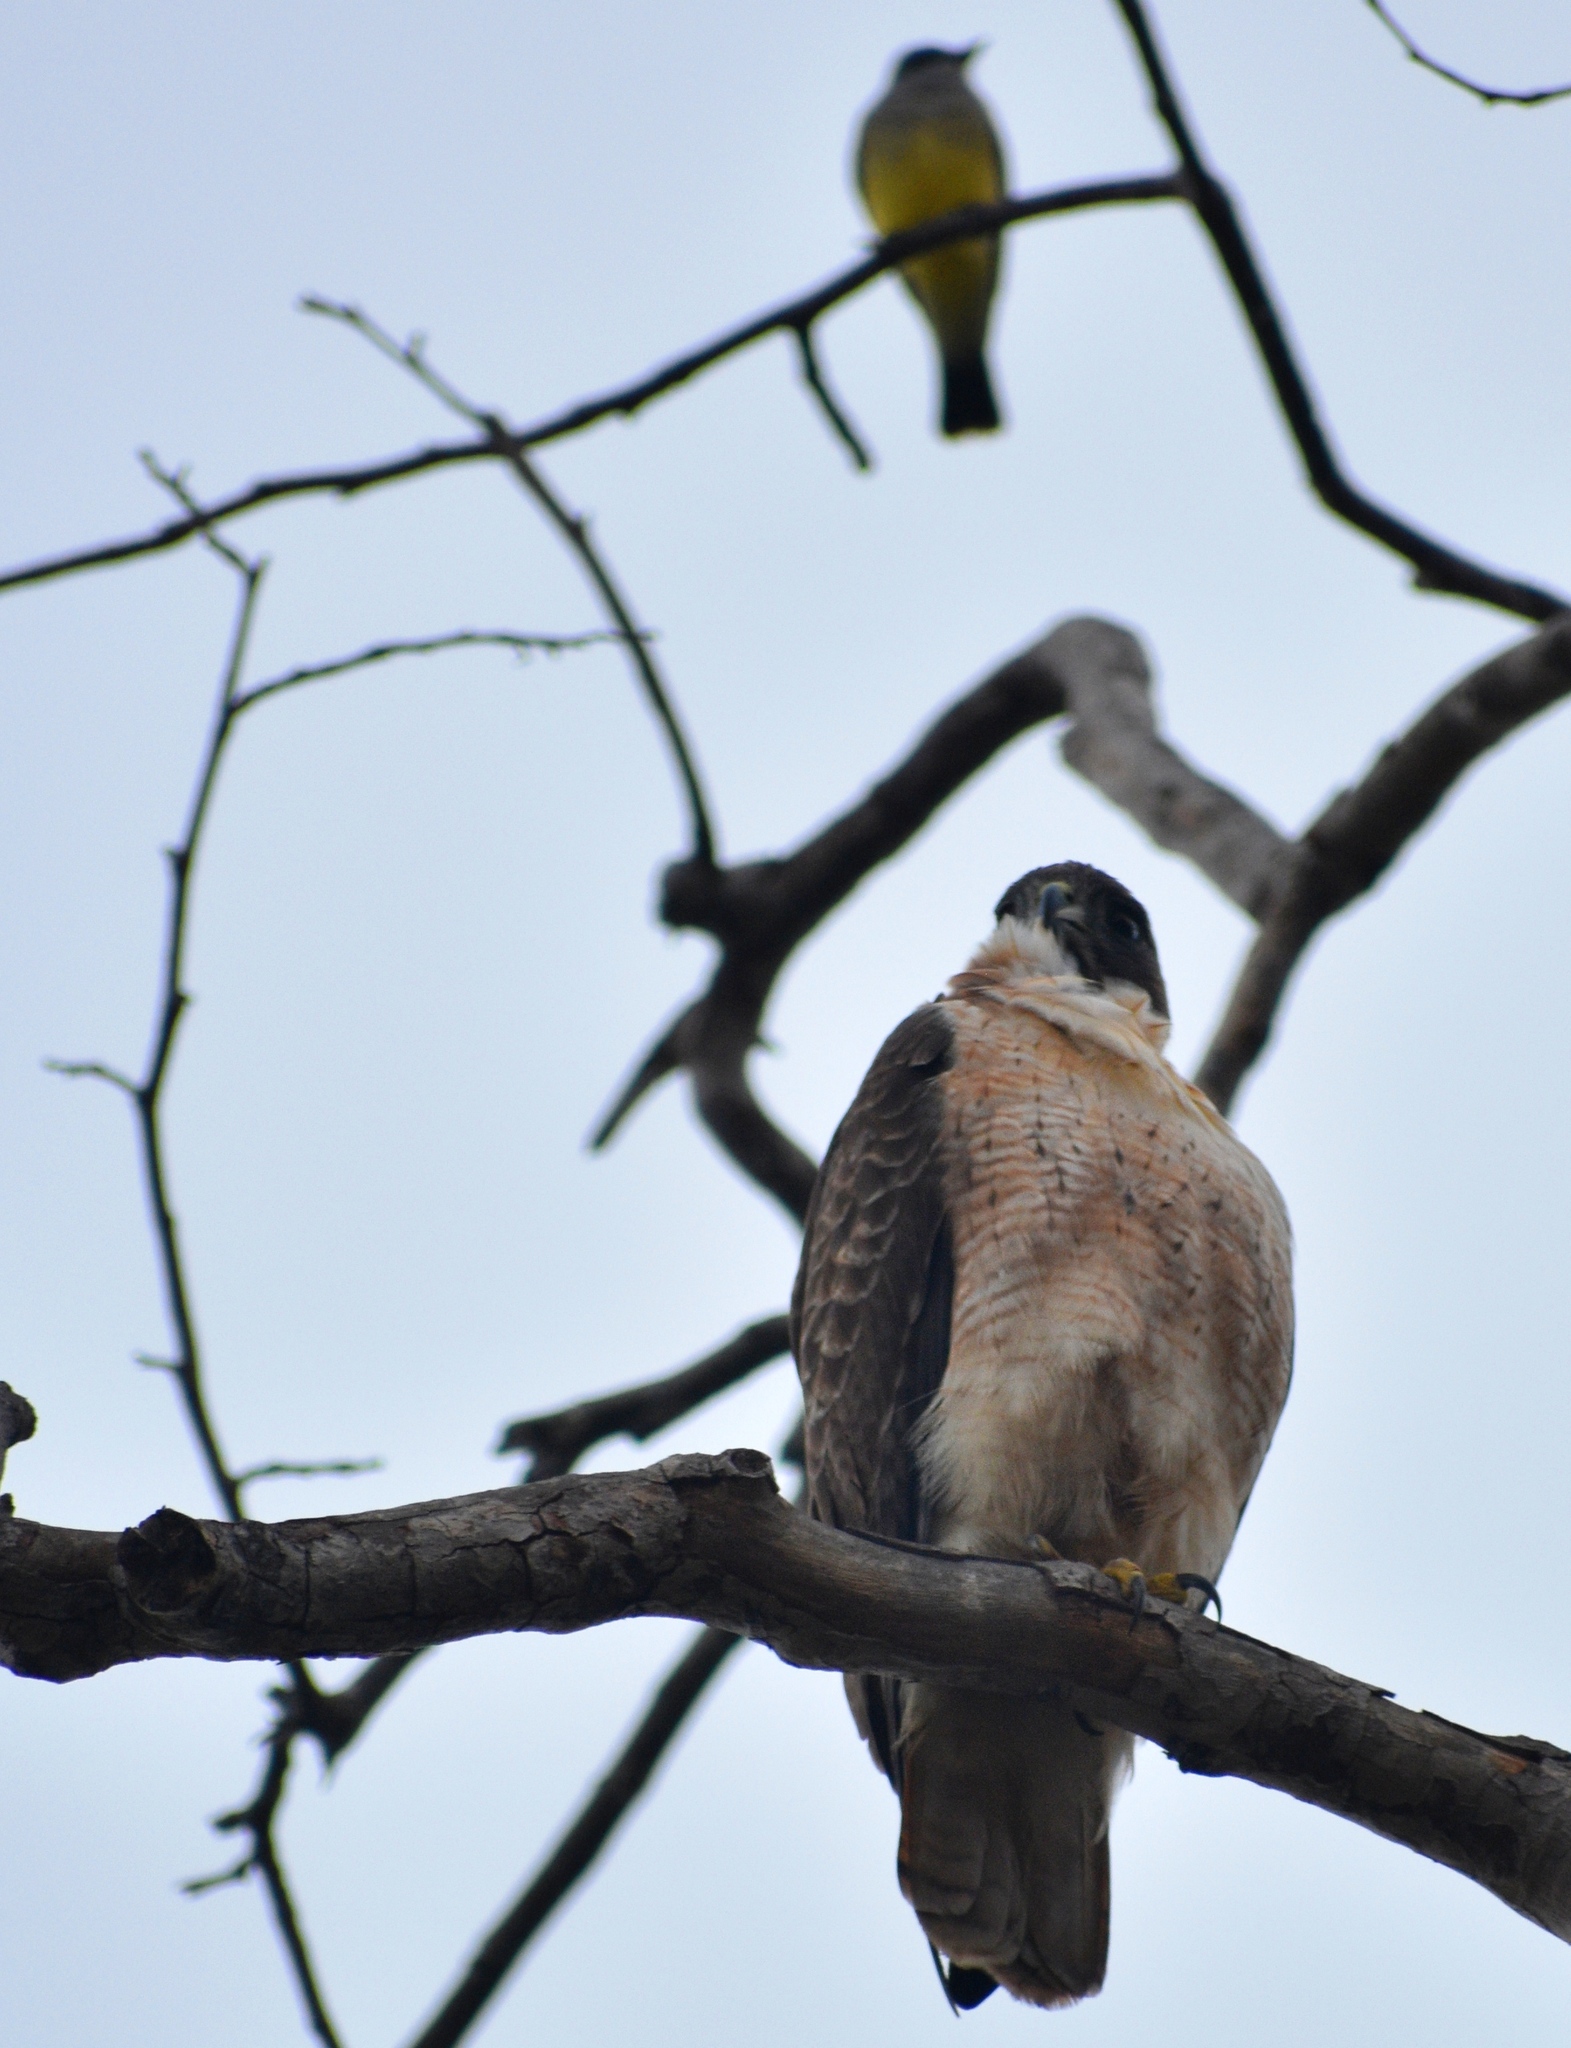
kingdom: Animalia
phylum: Chordata
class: Aves
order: Accipitriformes
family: Accipitridae
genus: Buteo
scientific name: Buteo jamaicensis
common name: Red-tailed hawk
